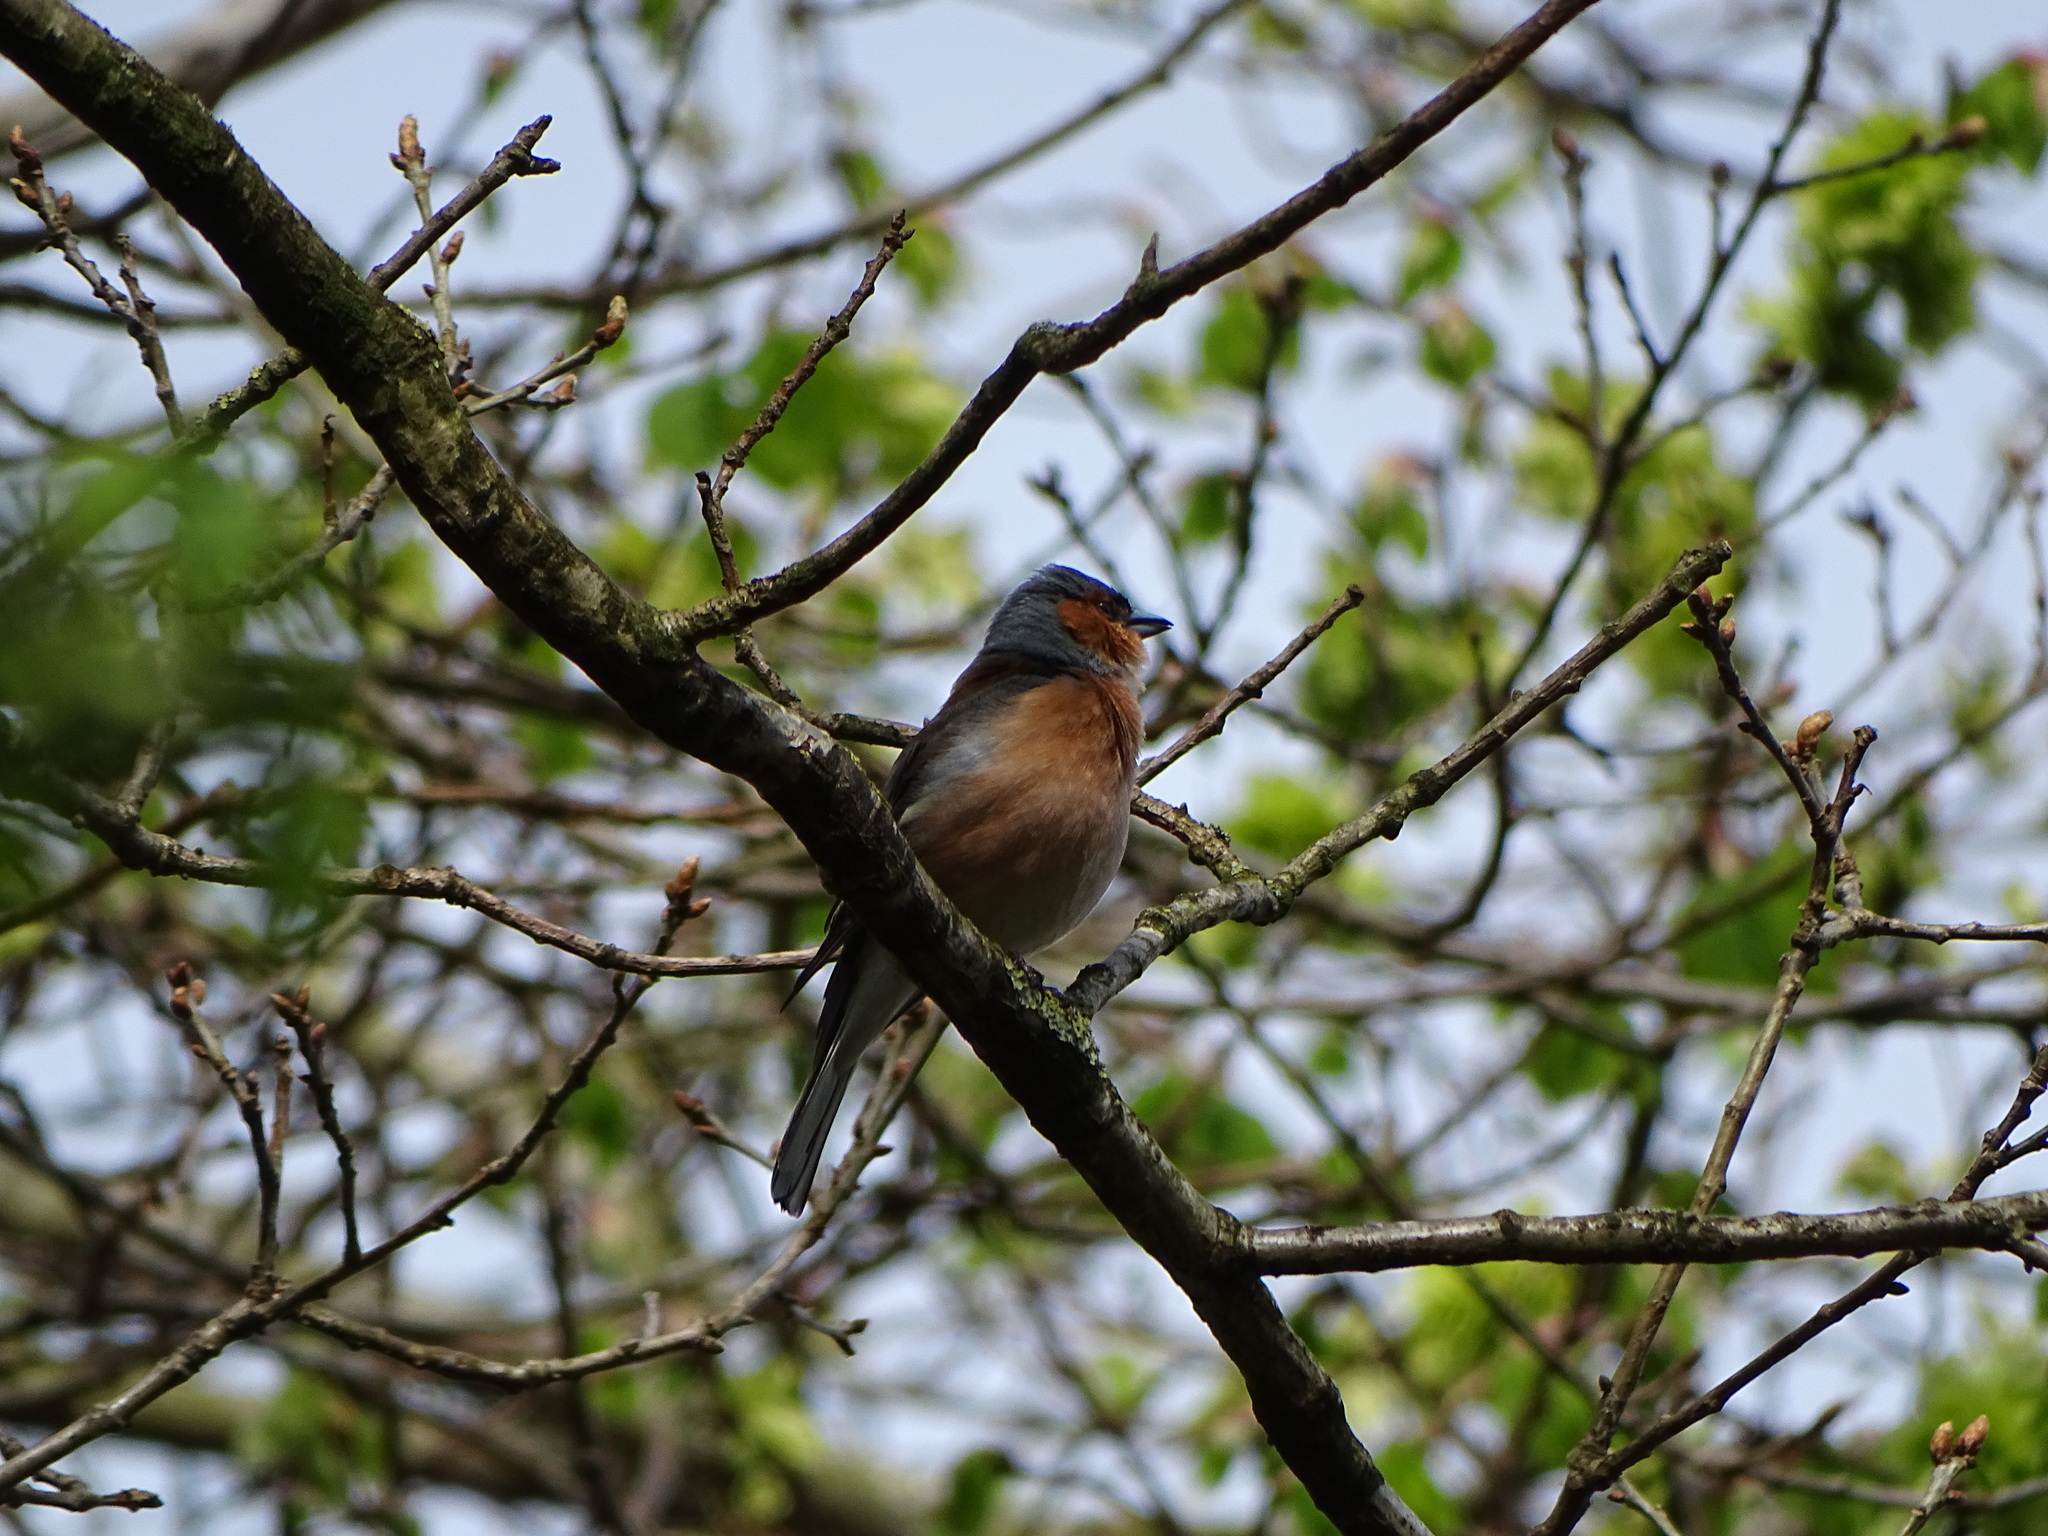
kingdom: Animalia
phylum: Chordata
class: Aves
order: Passeriformes
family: Fringillidae
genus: Fringilla
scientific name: Fringilla coelebs
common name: Common chaffinch
